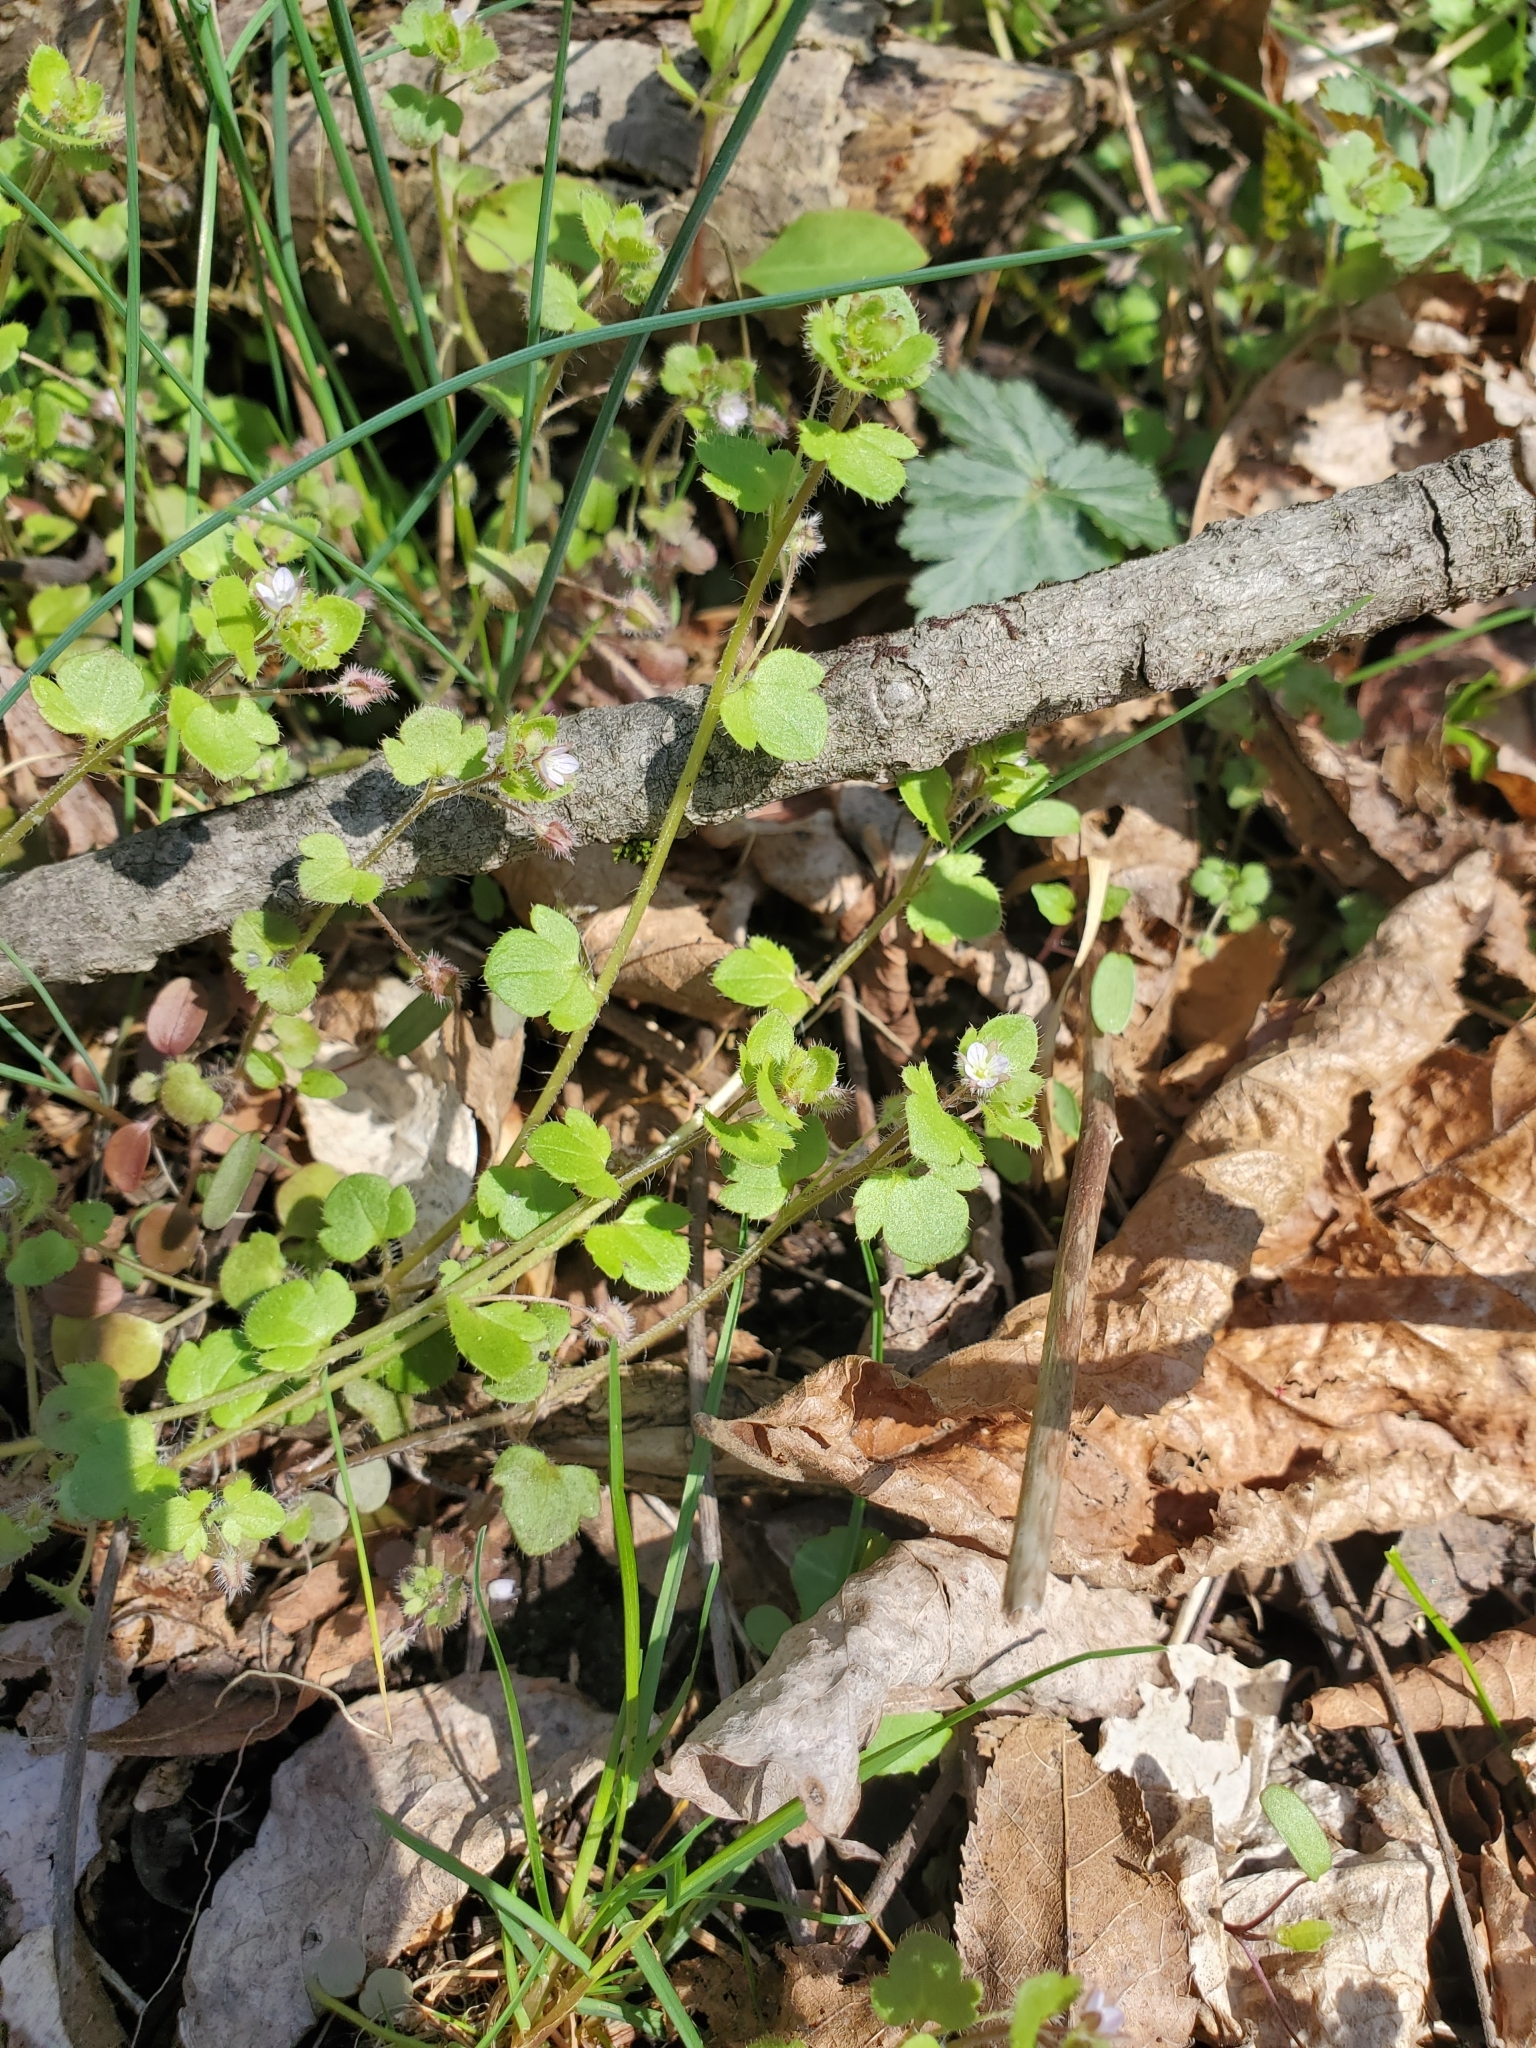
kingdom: Plantae
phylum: Tracheophyta
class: Magnoliopsida
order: Lamiales
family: Plantaginaceae
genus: Veronica
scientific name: Veronica sublobata
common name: False ivy-leaved speedwell
